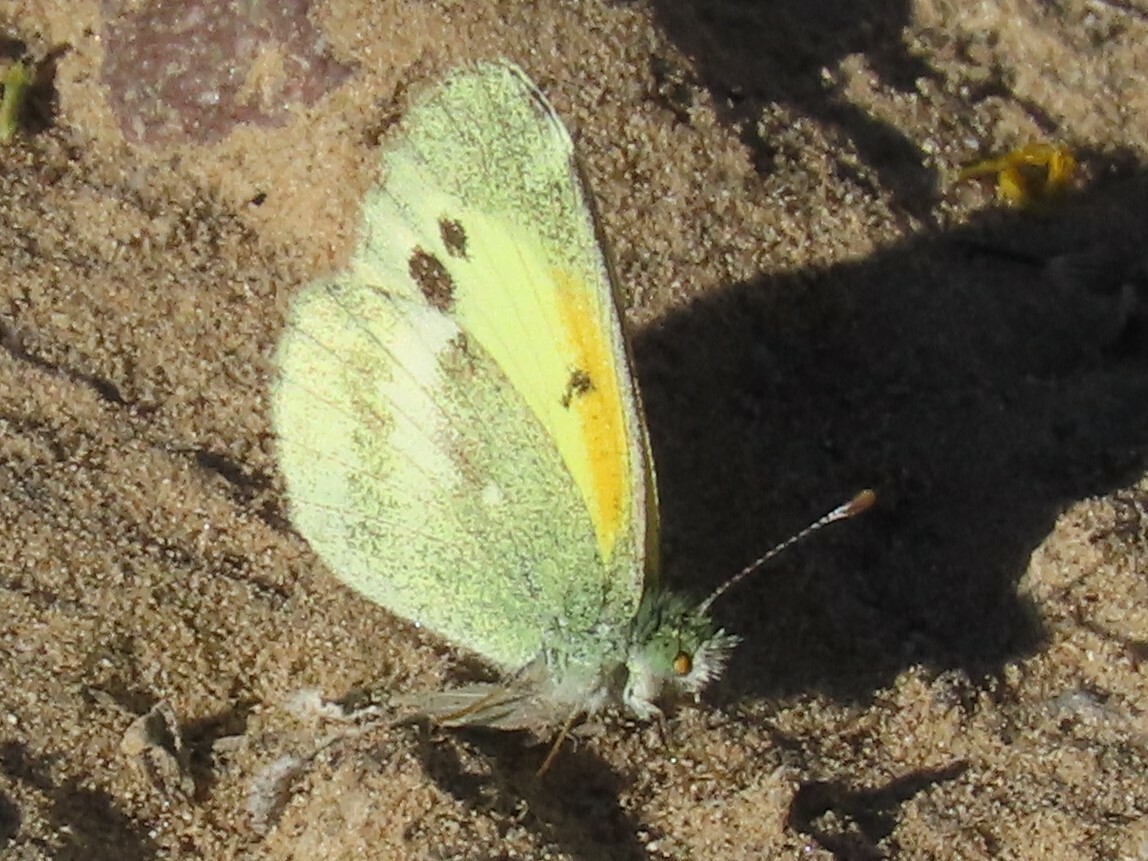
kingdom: Animalia
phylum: Arthropoda
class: Insecta
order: Lepidoptera
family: Pieridae
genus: Nathalis
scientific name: Nathalis iole
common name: Dainty sulphur
